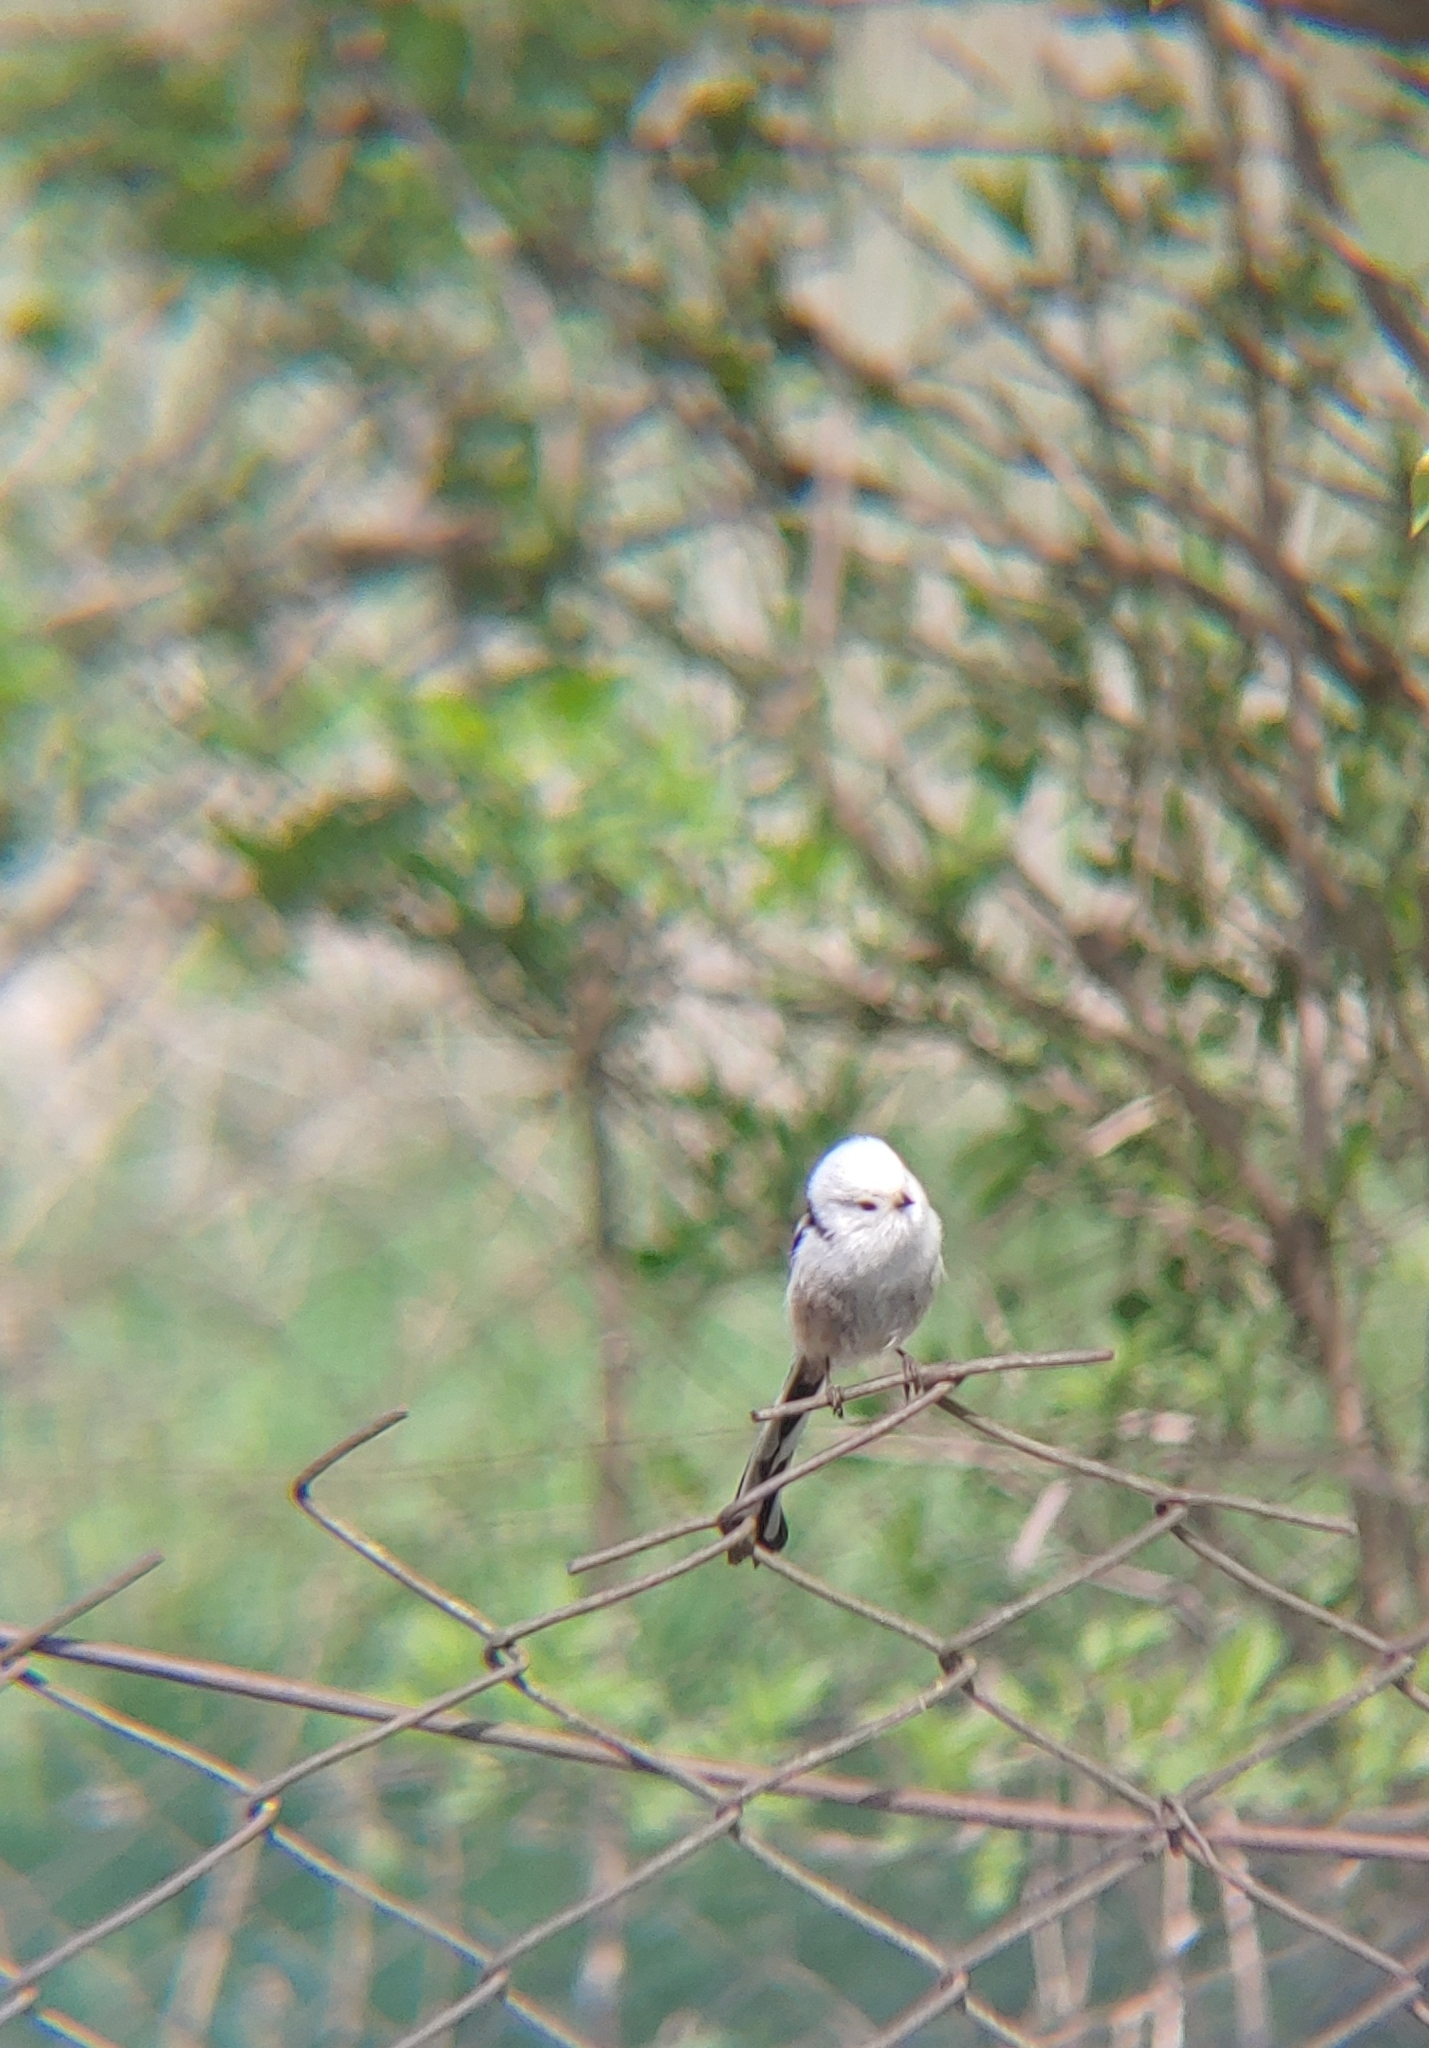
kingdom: Animalia
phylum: Chordata
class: Aves
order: Passeriformes
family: Aegithalidae
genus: Aegithalos
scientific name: Aegithalos caudatus
